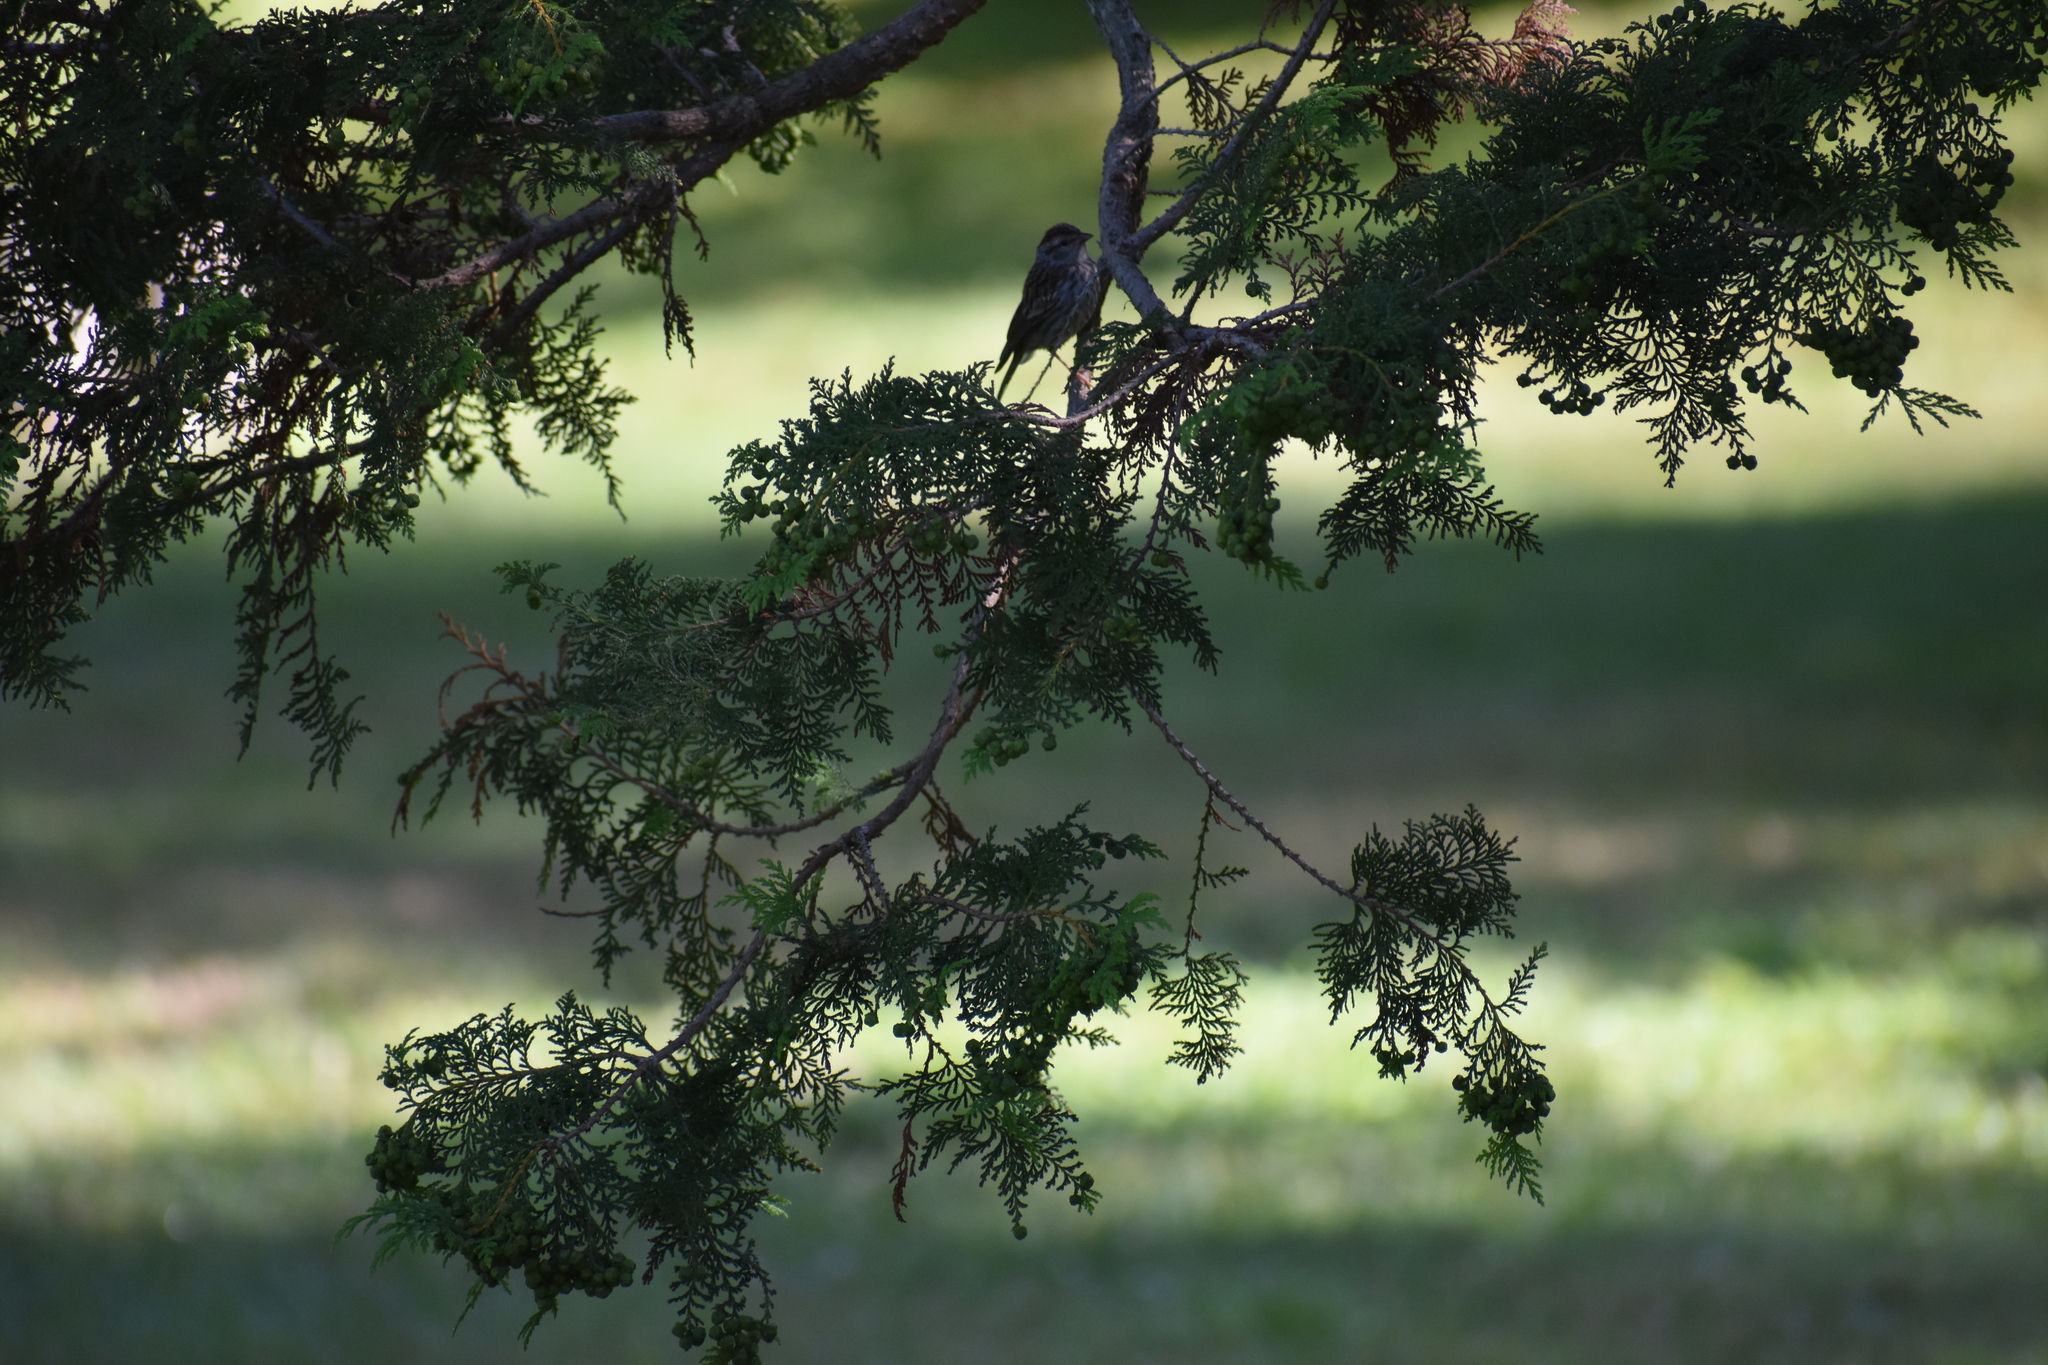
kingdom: Animalia
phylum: Chordata
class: Aves
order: Passeriformes
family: Passerellidae
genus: Spizella
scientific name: Spizella passerina
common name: Chipping sparrow
